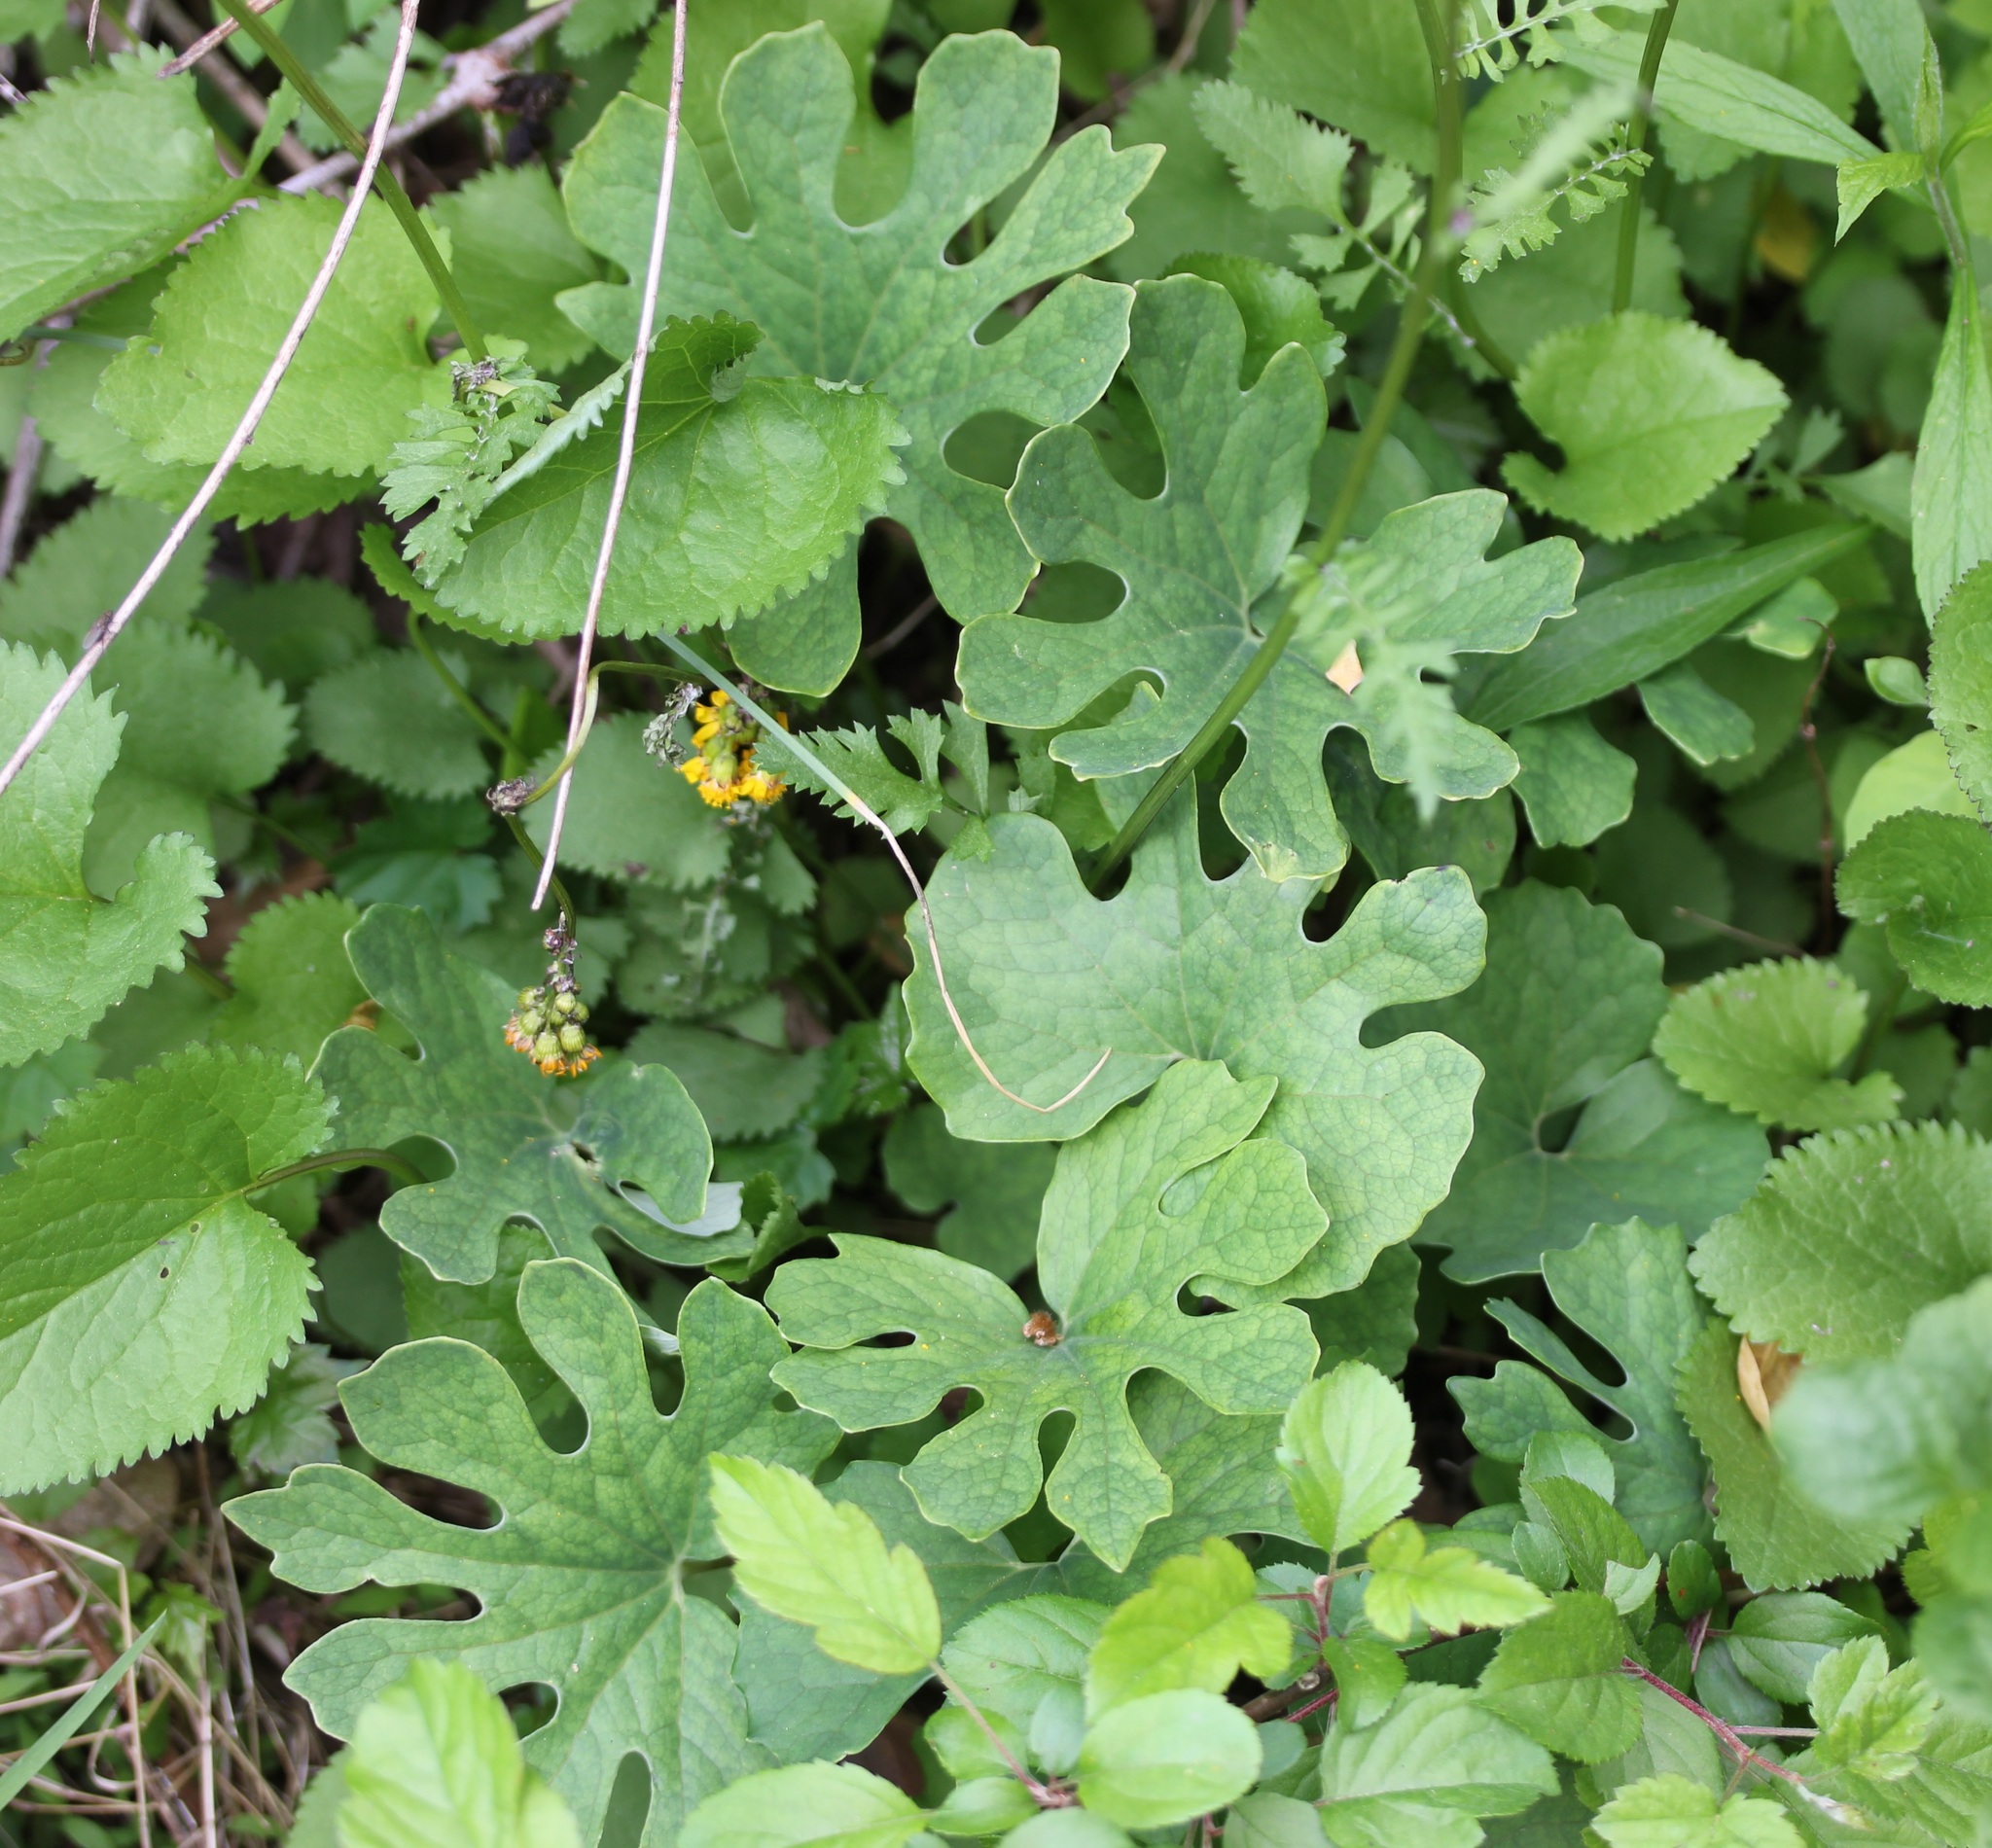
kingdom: Plantae
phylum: Tracheophyta
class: Magnoliopsida
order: Ranunculales
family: Papaveraceae
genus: Sanguinaria
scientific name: Sanguinaria canadensis
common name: Bloodroot
